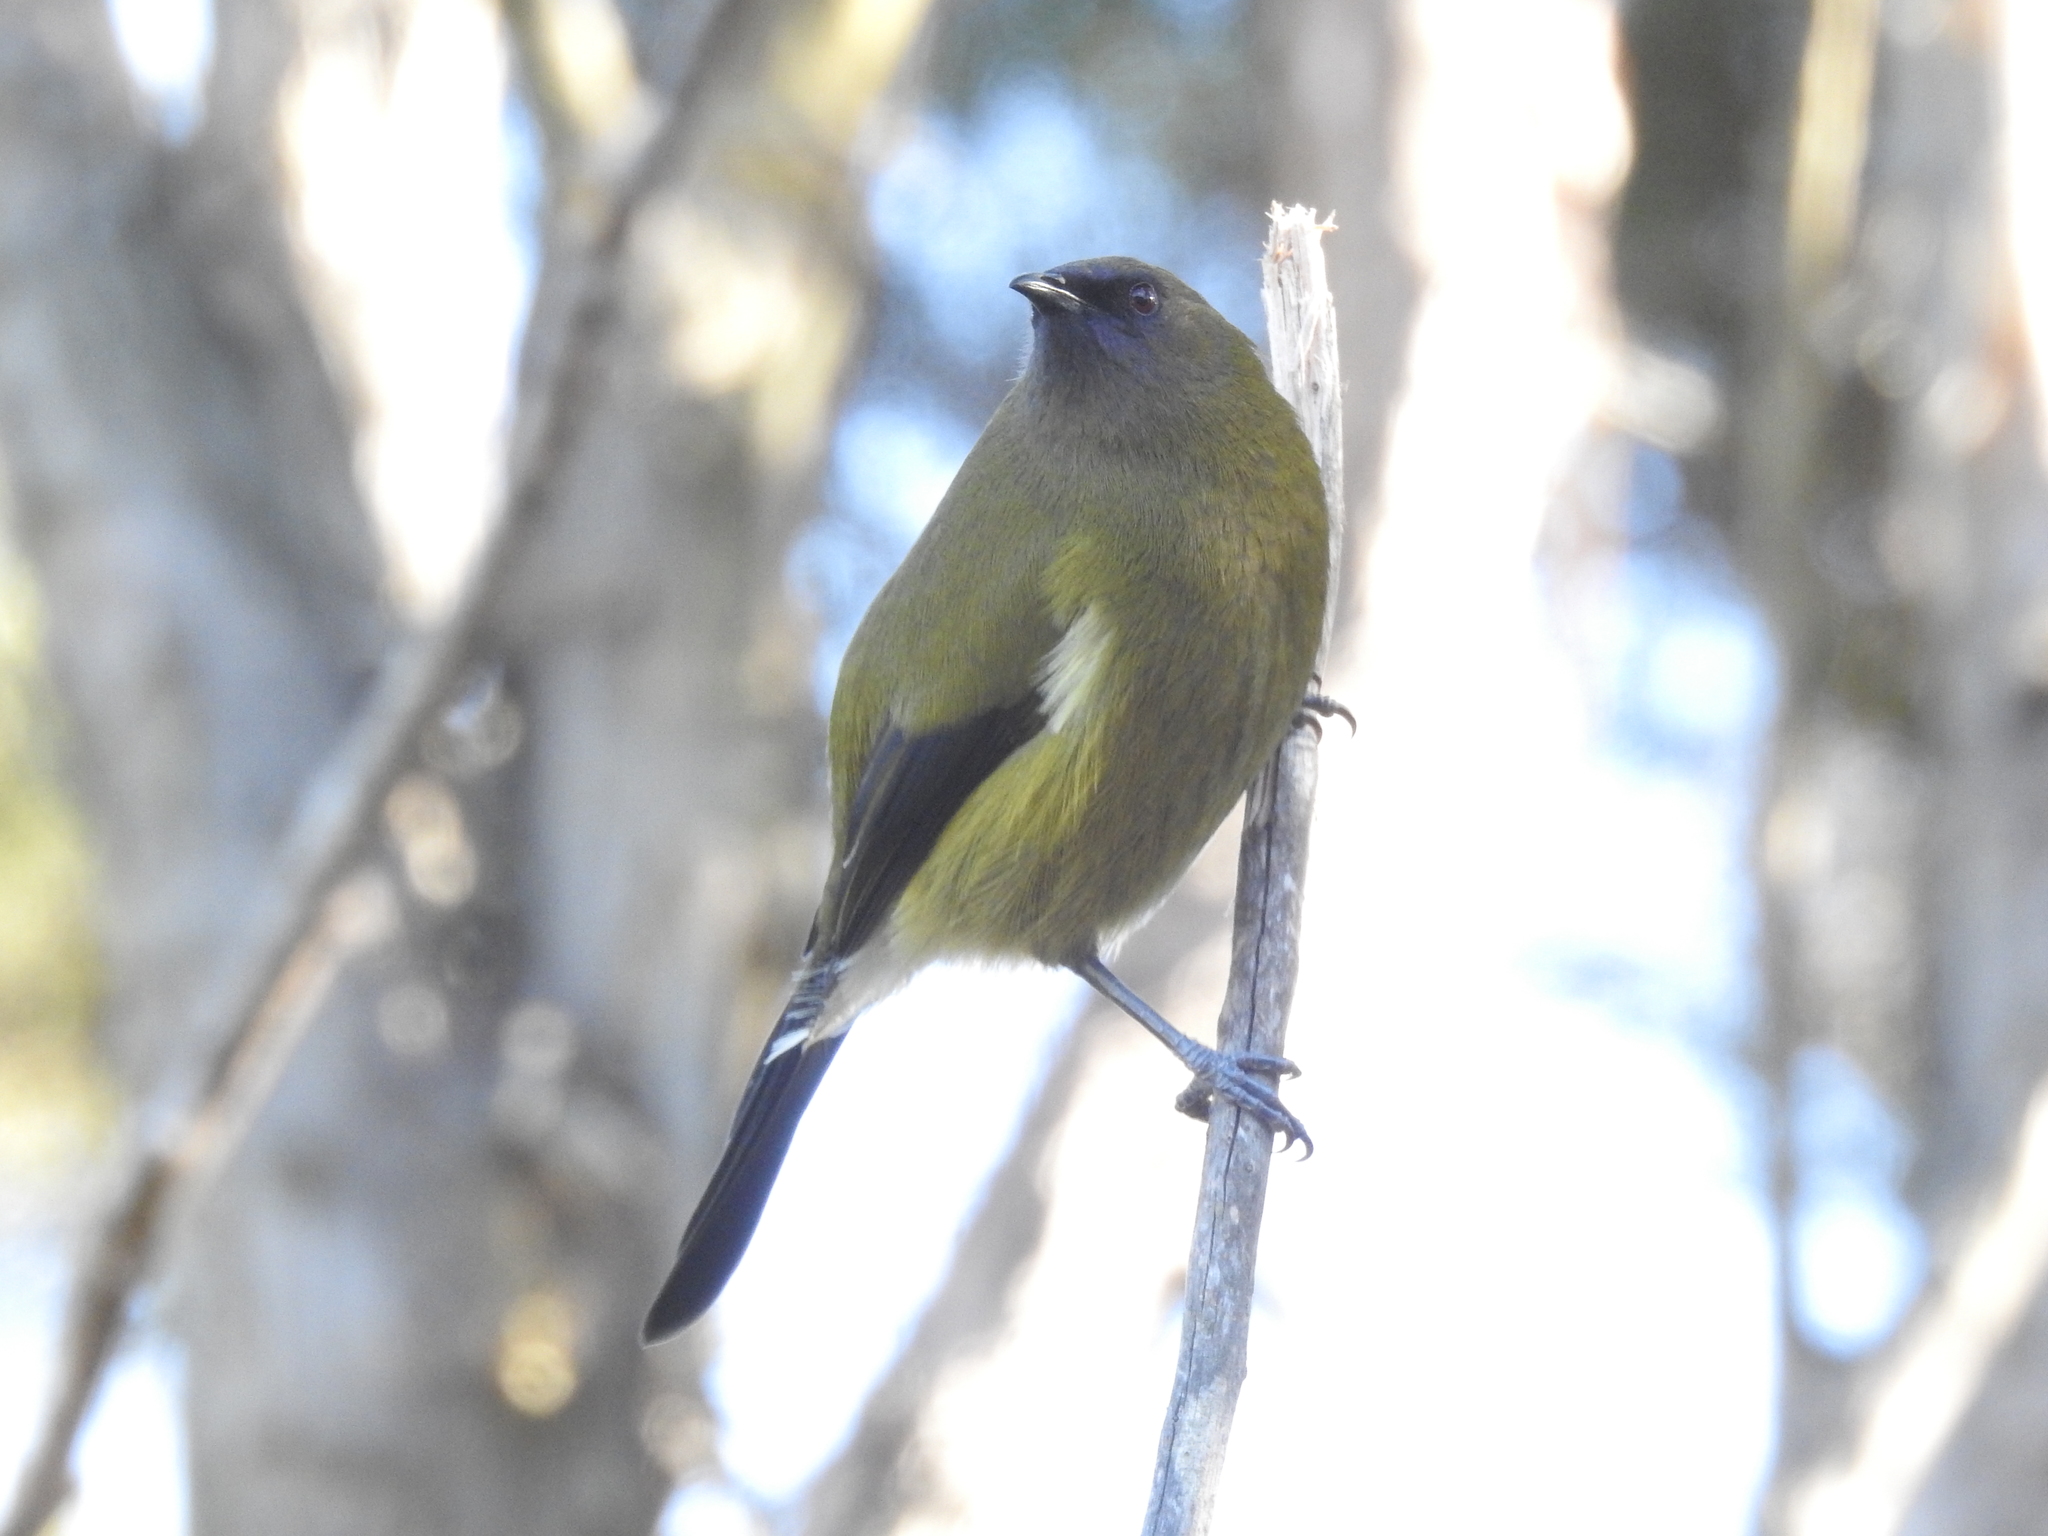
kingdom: Animalia
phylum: Chordata
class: Aves
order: Passeriformes
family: Meliphagidae
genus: Anthornis
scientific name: Anthornis melanura
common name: New zealand bellbird
